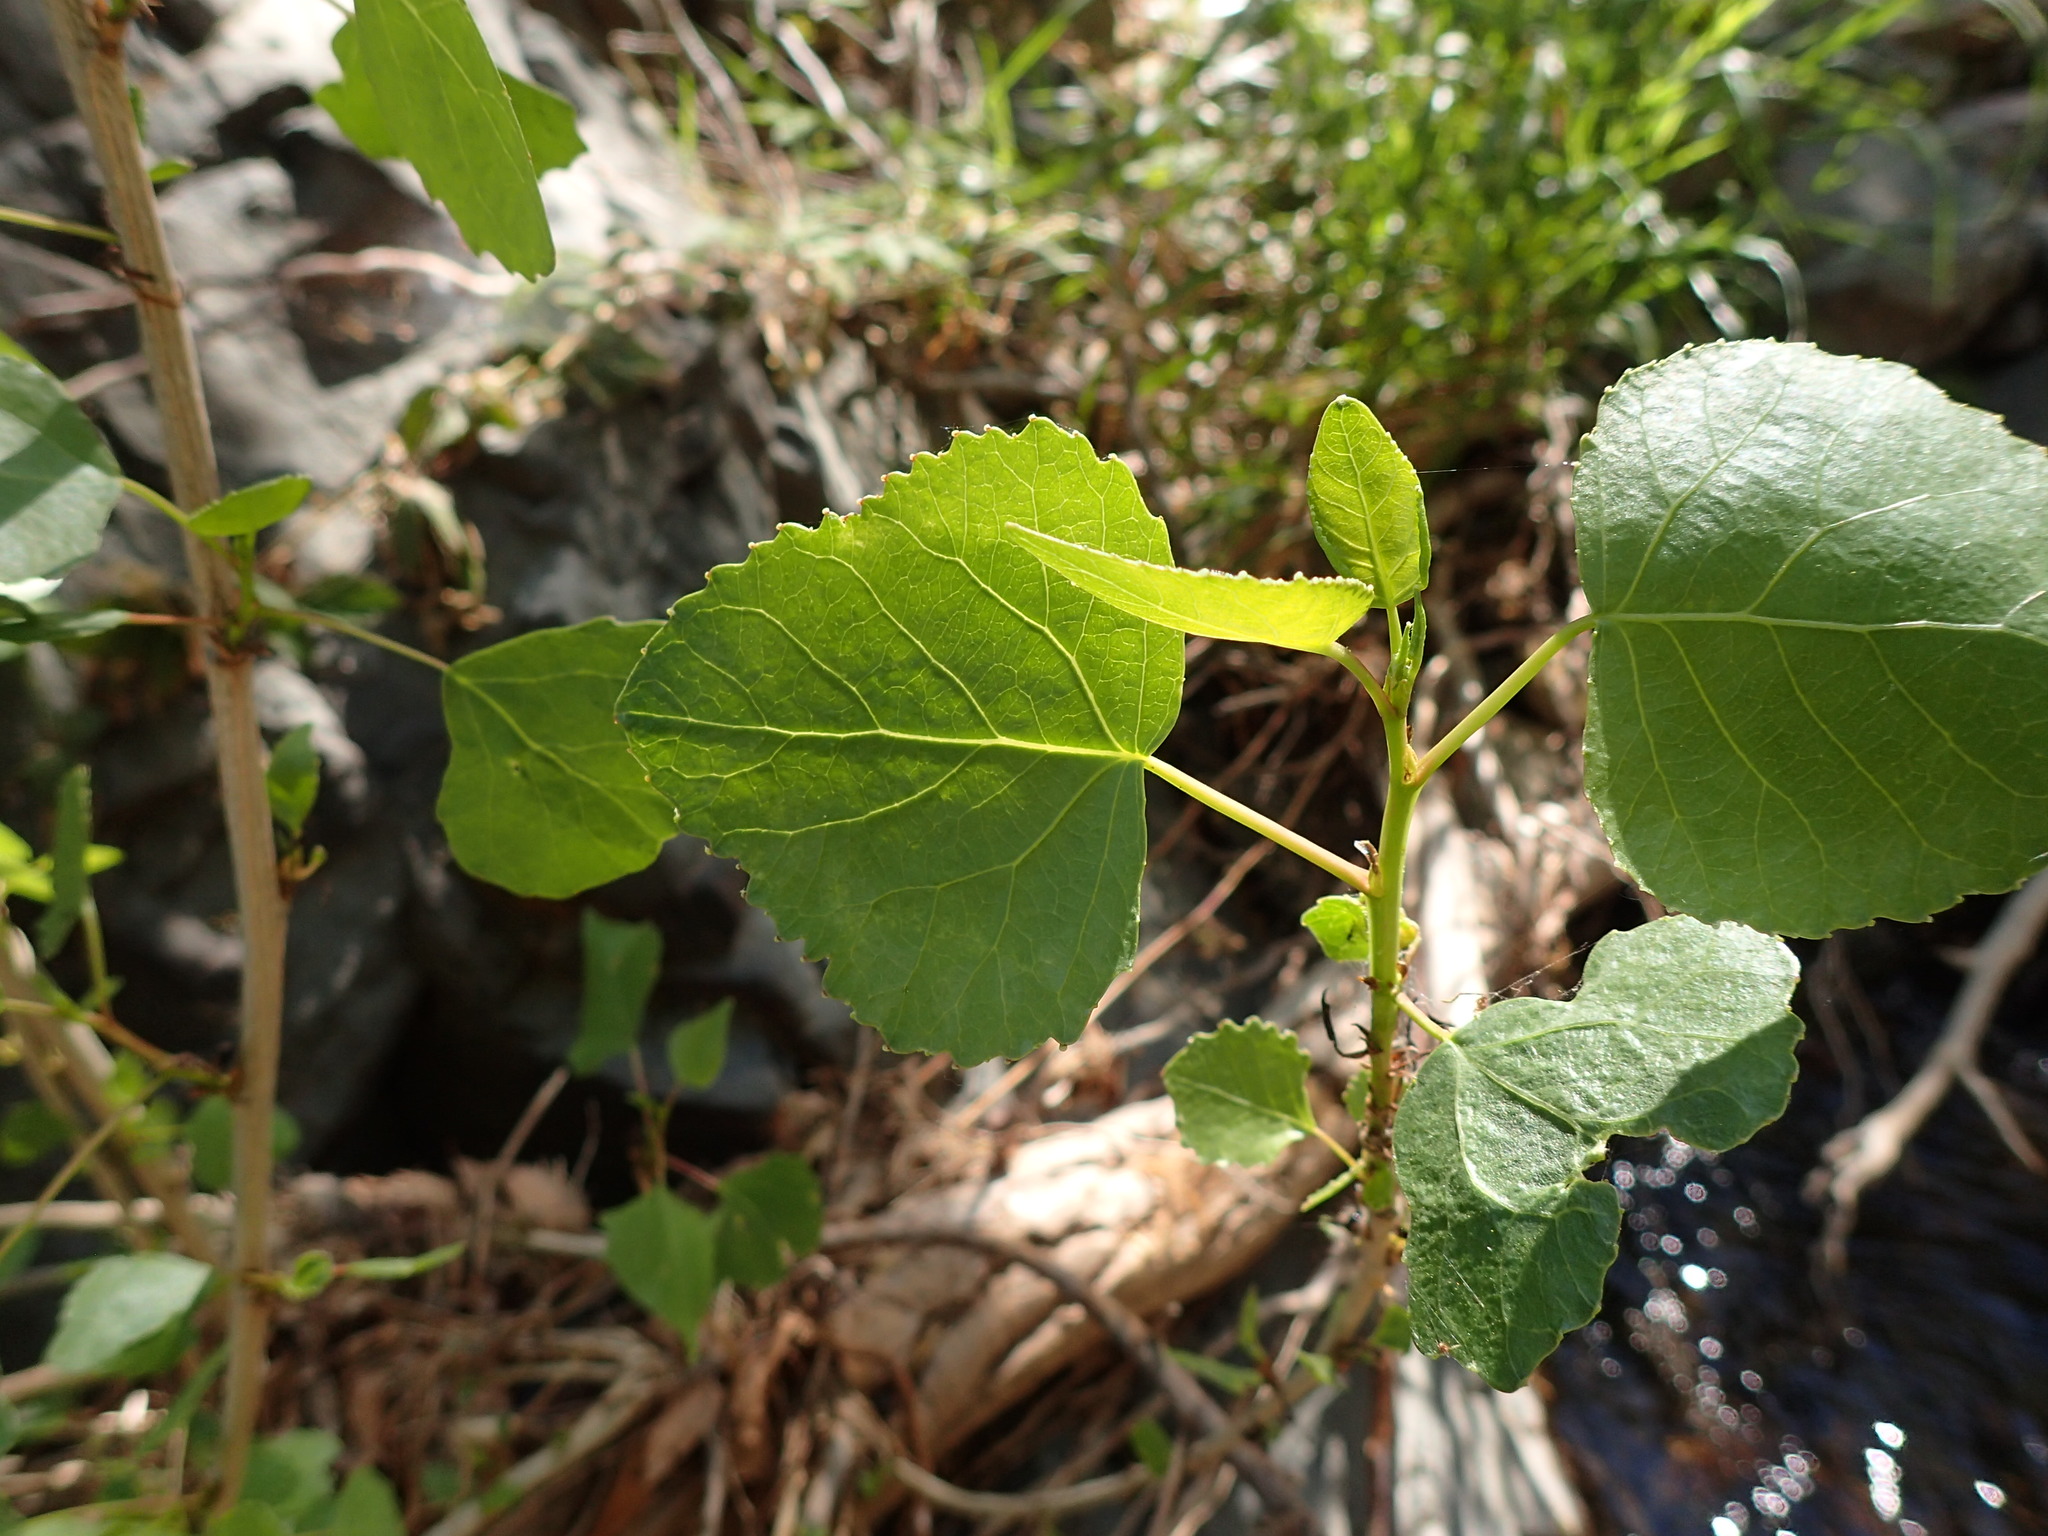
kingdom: Plantae
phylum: Tracheophyta
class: Magnoliopsida
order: Malpighiales
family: Salicaceae
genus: Populus
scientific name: Populus fremontii
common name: Fremont's cottonwood
